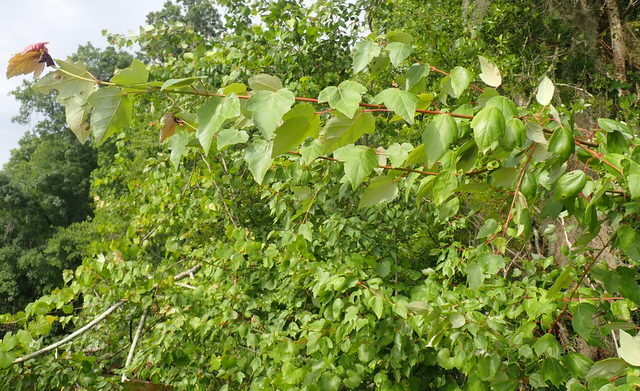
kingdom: Plantae
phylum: Tracheophyta
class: Magnoliopsida
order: Sapindales
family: Sapindaceae
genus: Acer
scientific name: Acer rubrum
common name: Red maple
